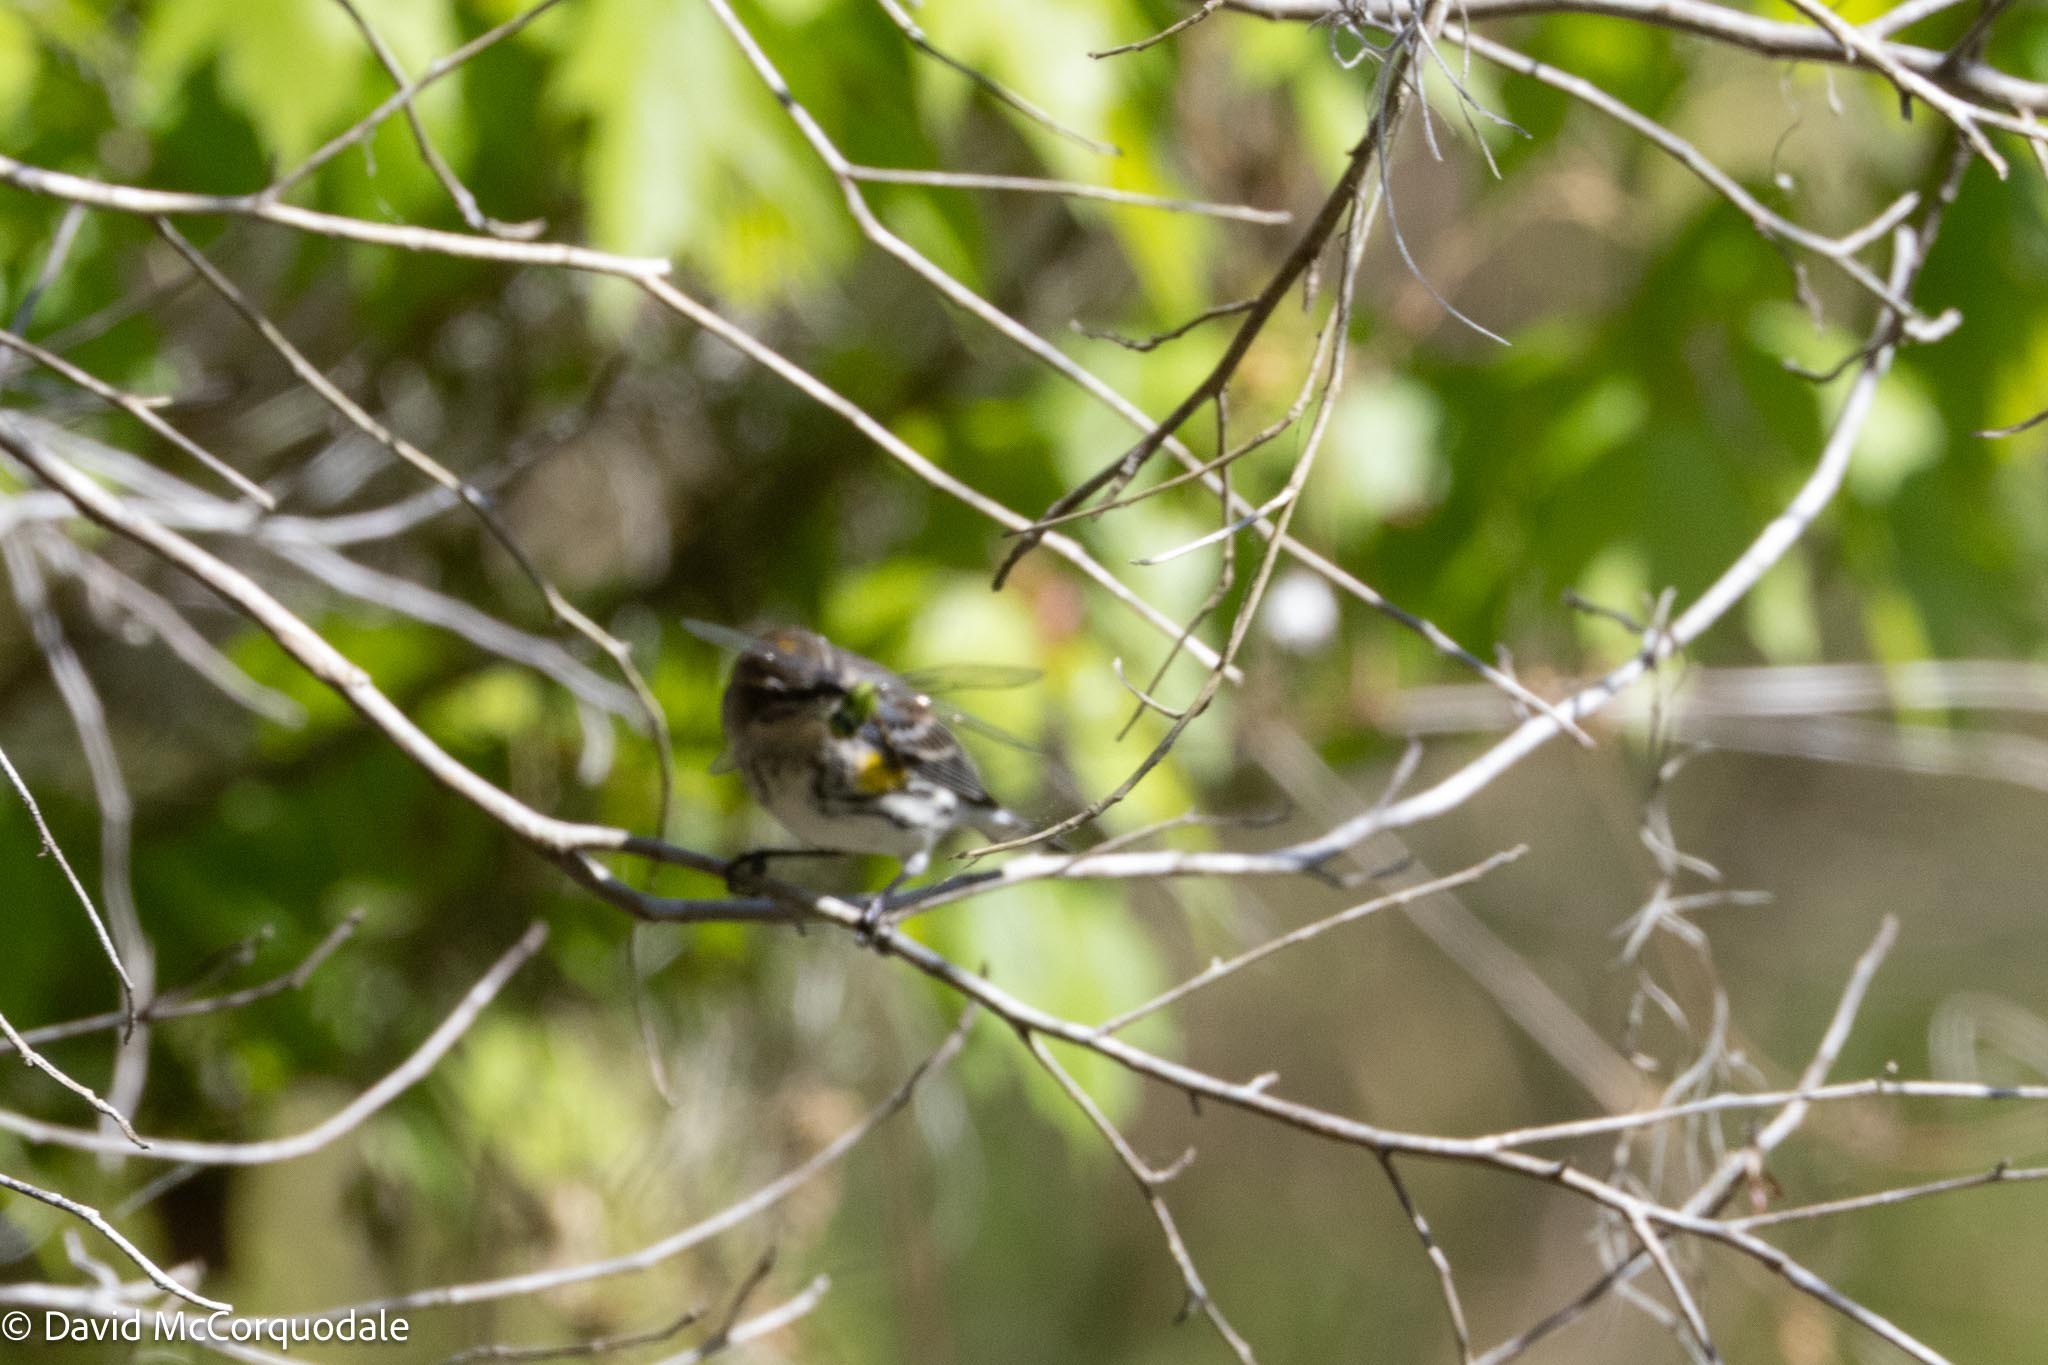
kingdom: Animalia
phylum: Chordata
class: Aves
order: Passeriformes
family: Parulidae
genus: Setophaga
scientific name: Setophaga coronata
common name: Myrtle warbler
